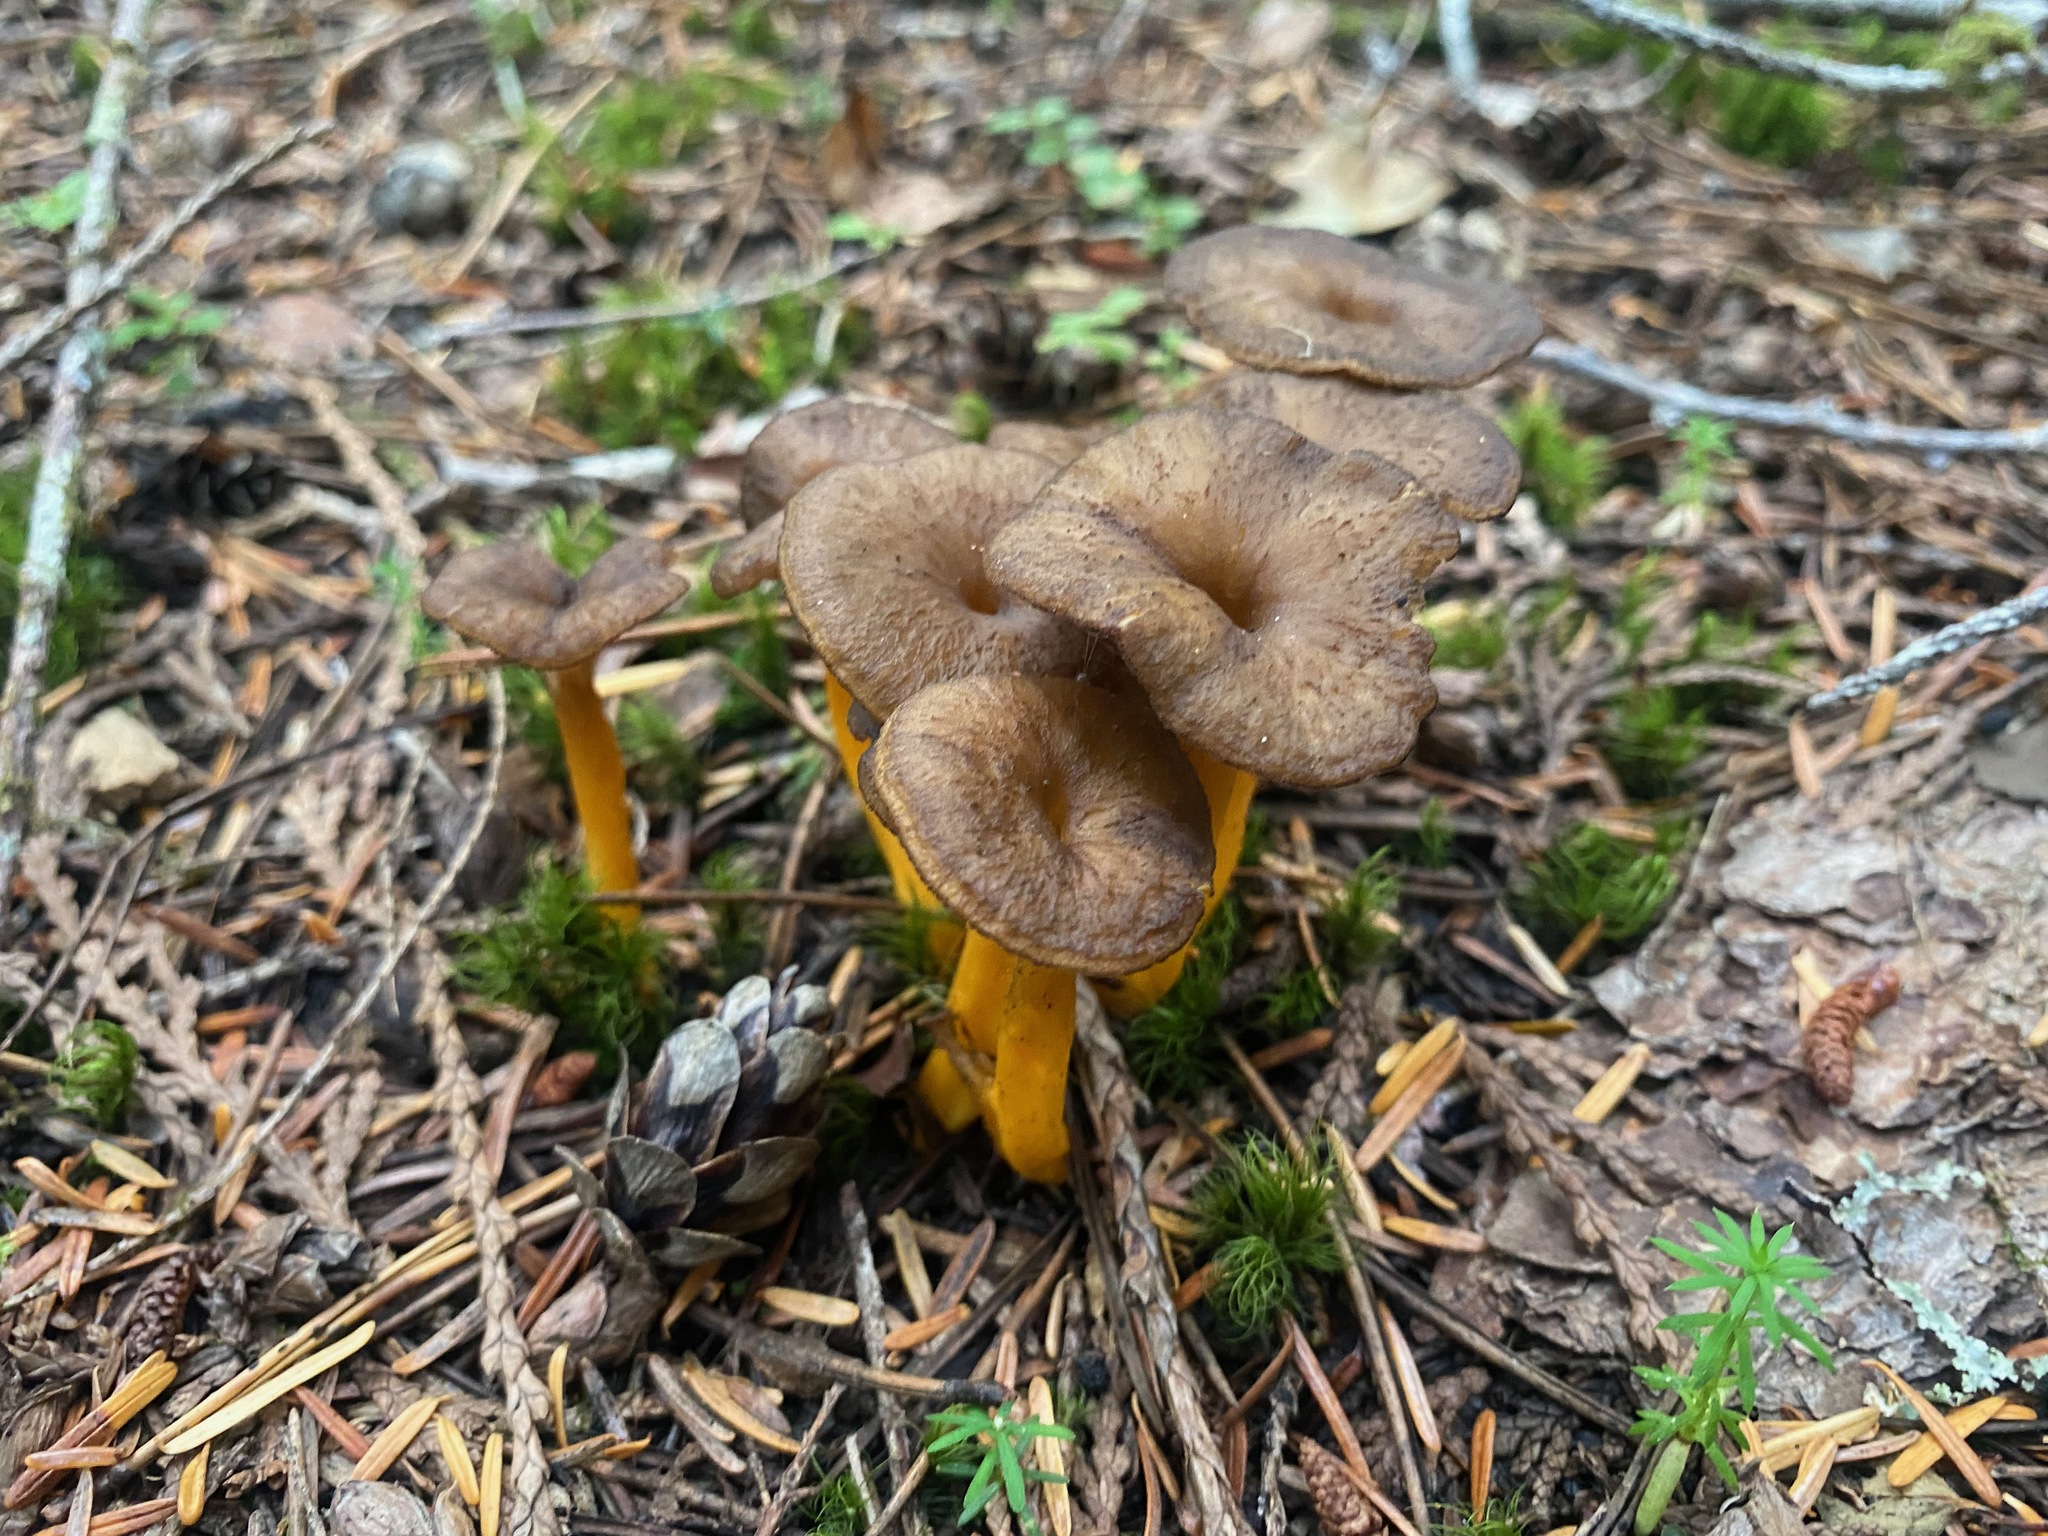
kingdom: Fungi
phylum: Basidiomycota
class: Agaricomycetes
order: Cantharellales
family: Hydnaceae
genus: Craterellus
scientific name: Craterellus tubaeformis
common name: Yellowfoot
